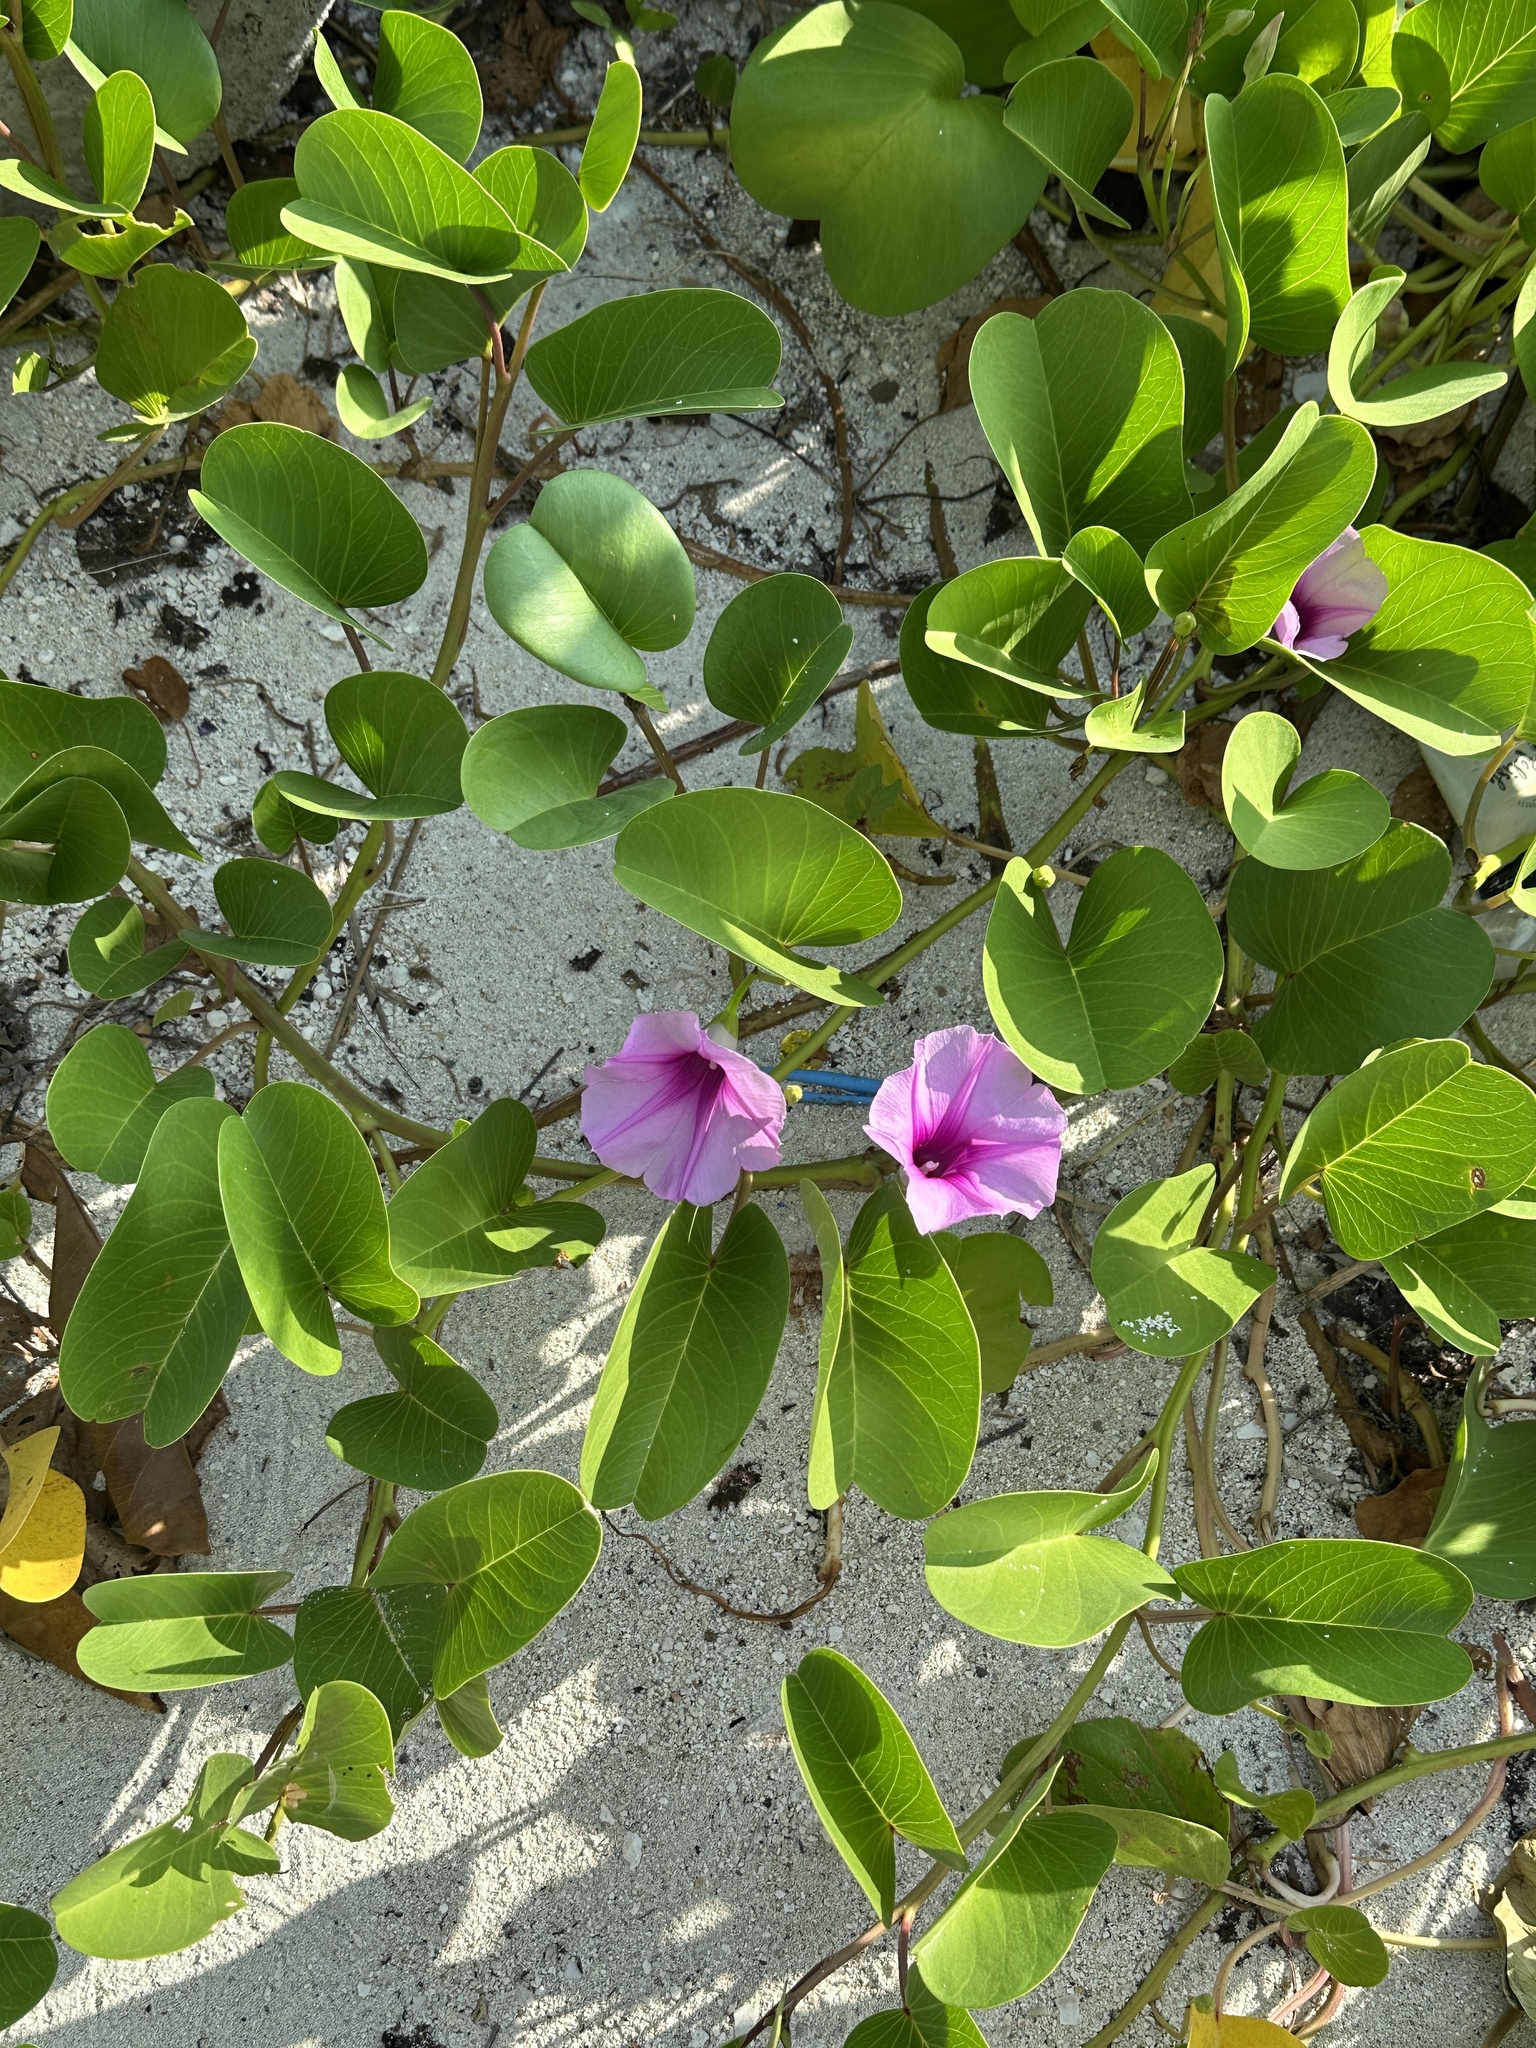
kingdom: Plantae
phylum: Tracheophyta
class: Magnoliopsida
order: Solanales
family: Convolvulaceae
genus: Ipomoea
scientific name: Ipomoea pes-caprae
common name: Beach morning glory
